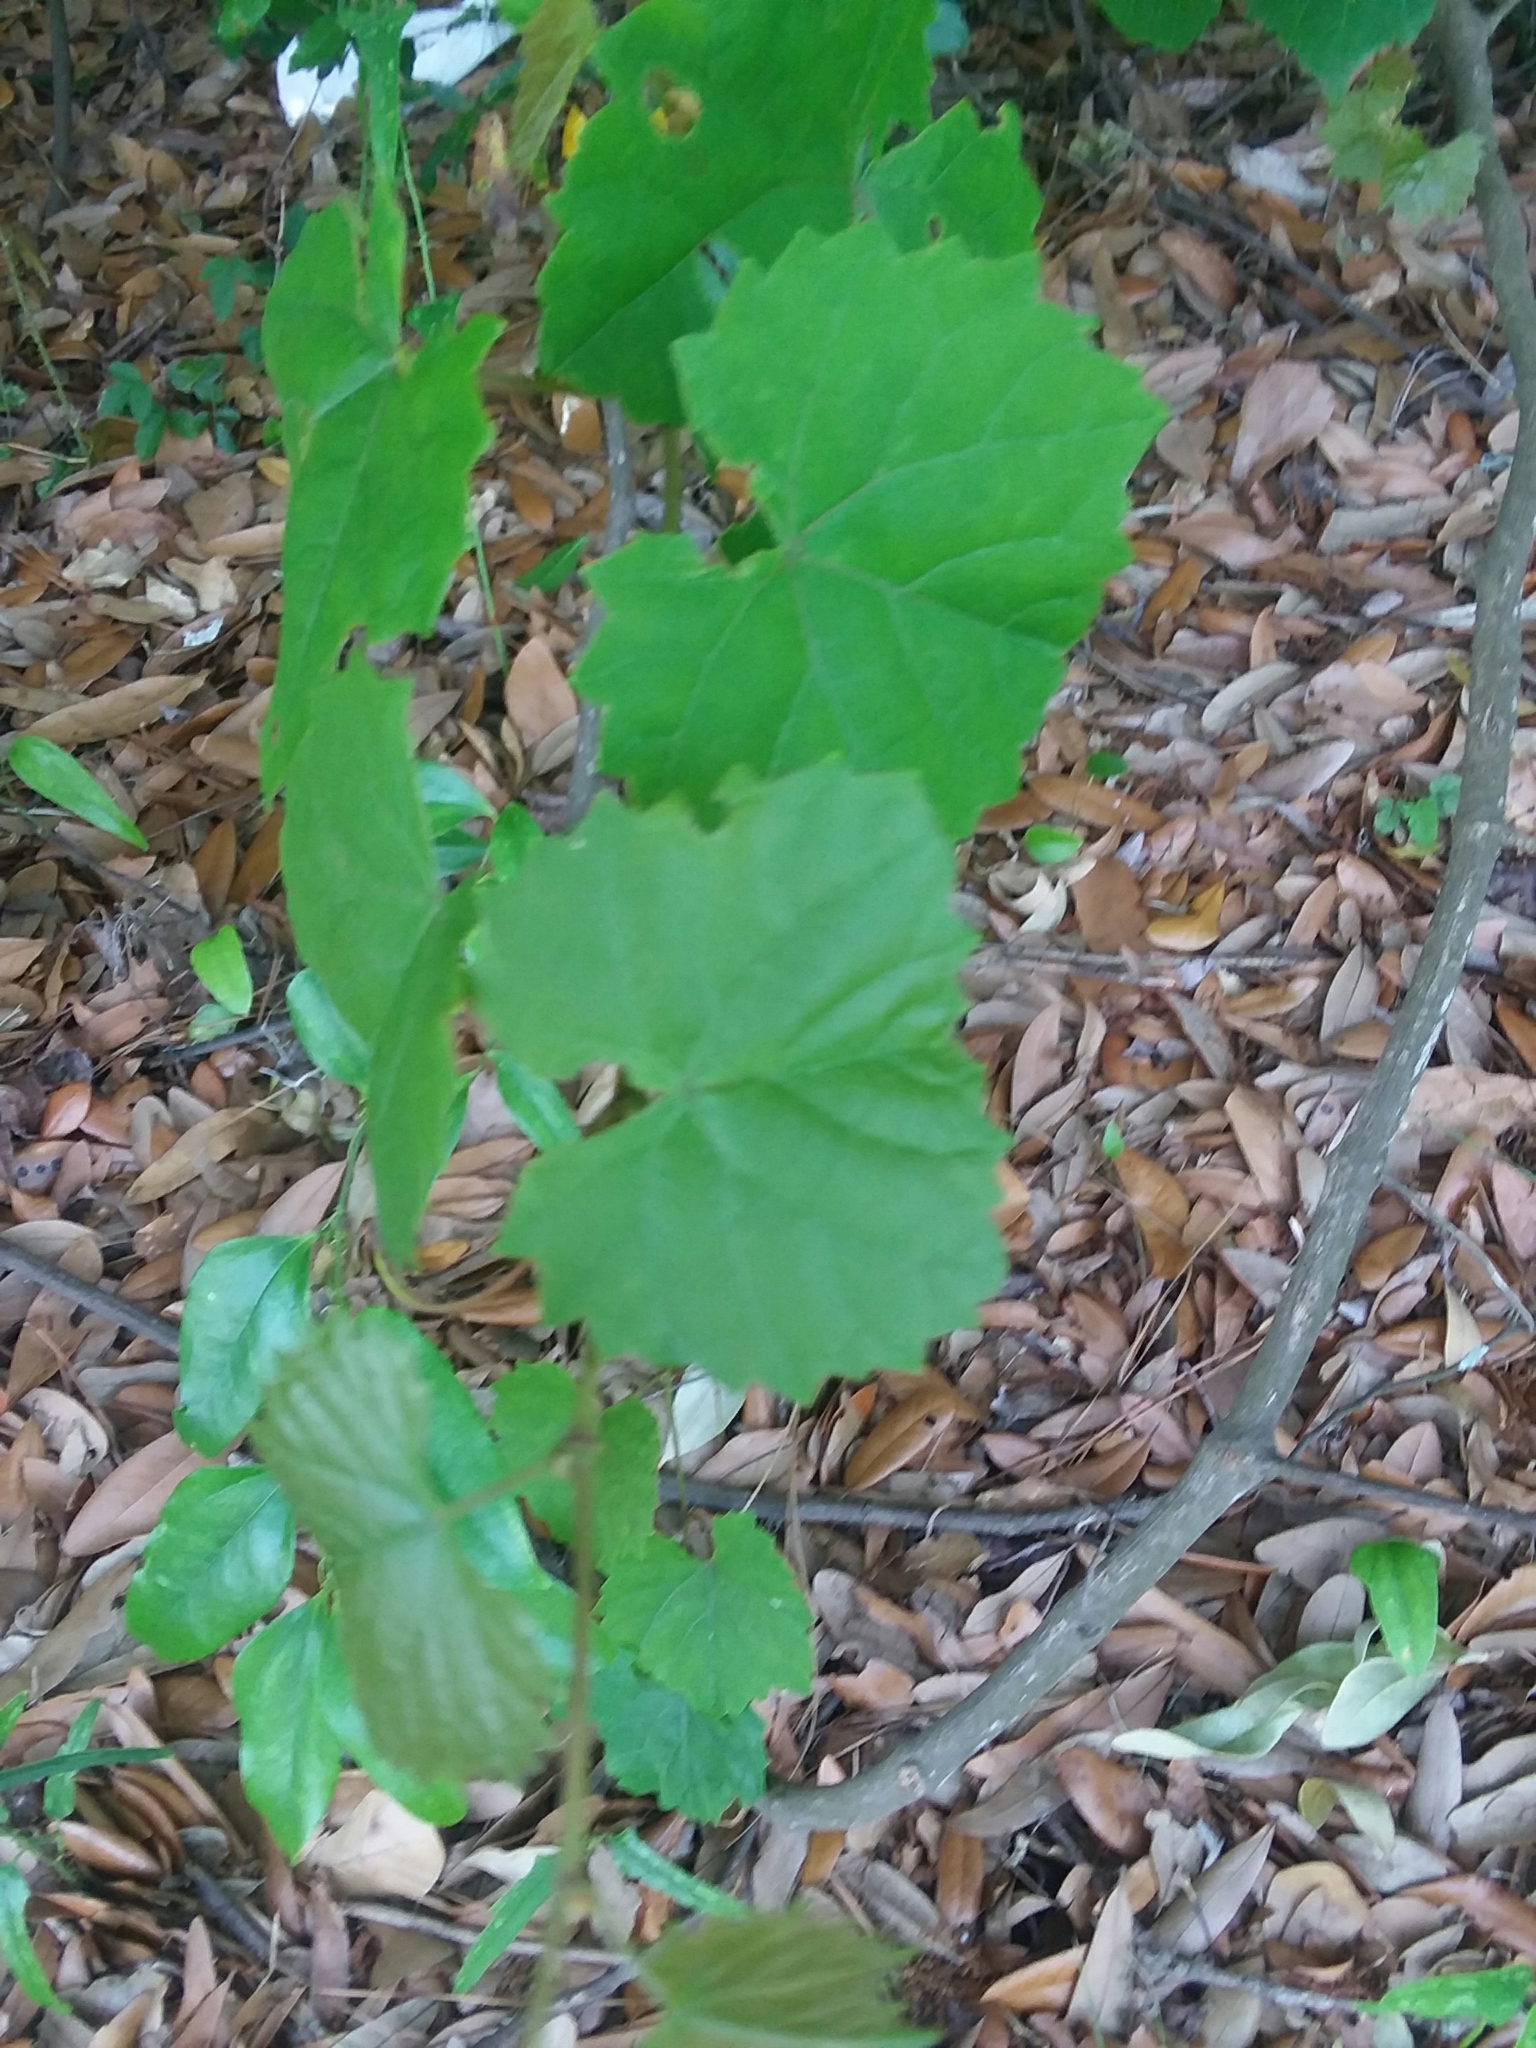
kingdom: Plantae
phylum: Tracheophyta
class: Magnoliopsida
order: Vitales
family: Vitaceae
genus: Vitis
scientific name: Vitis rotundifolia
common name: Muscadine grape
